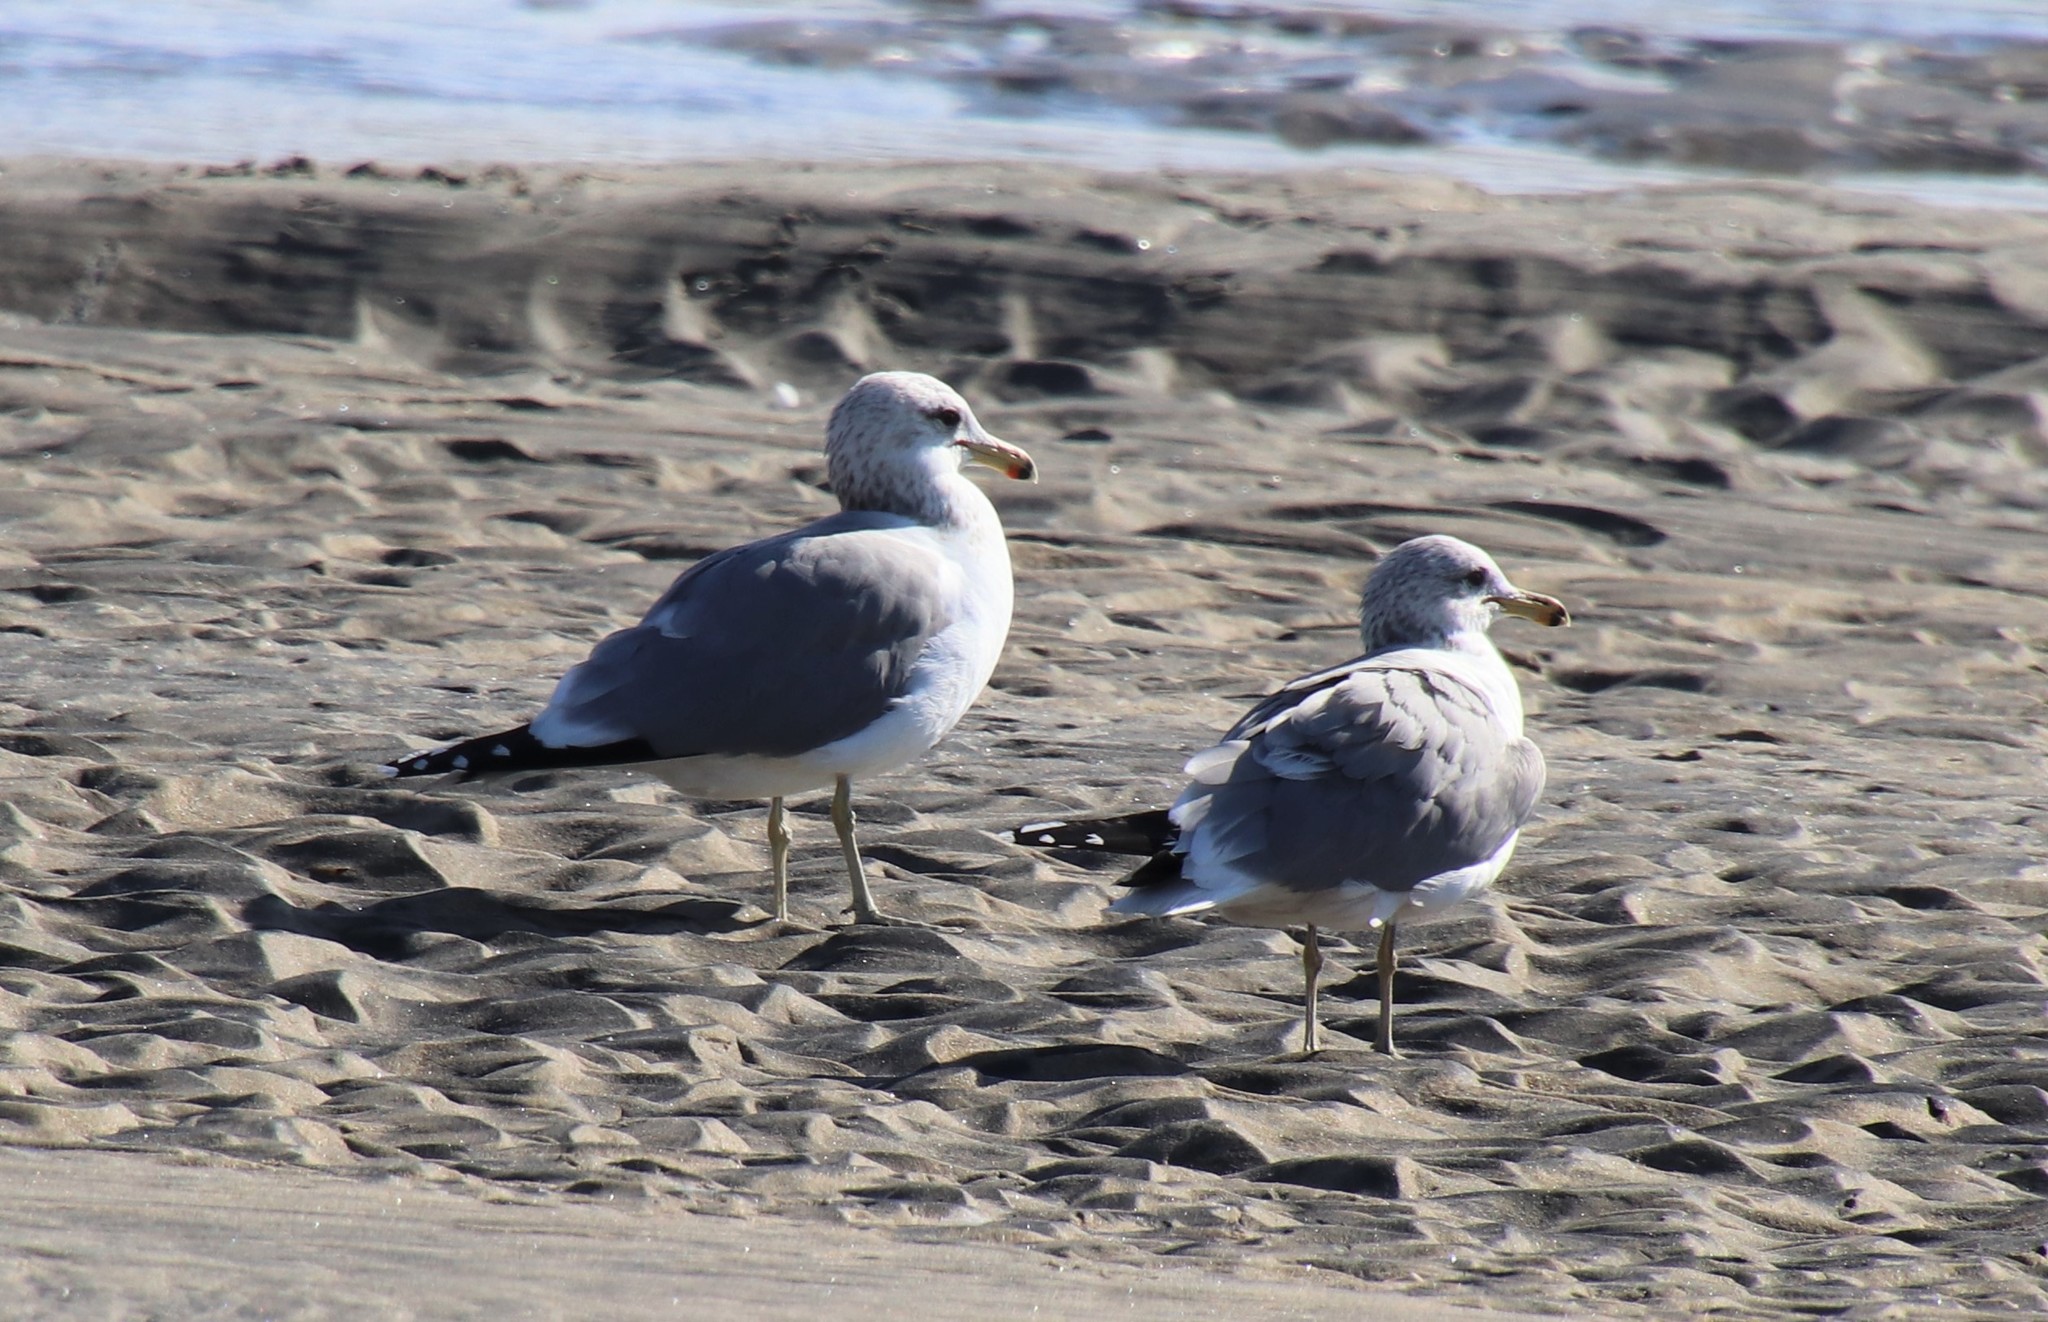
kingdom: Animalia
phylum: Chordata
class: Aves
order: Charadriiformes
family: Laridae
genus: Larus
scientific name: Larus californicus
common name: California gull
